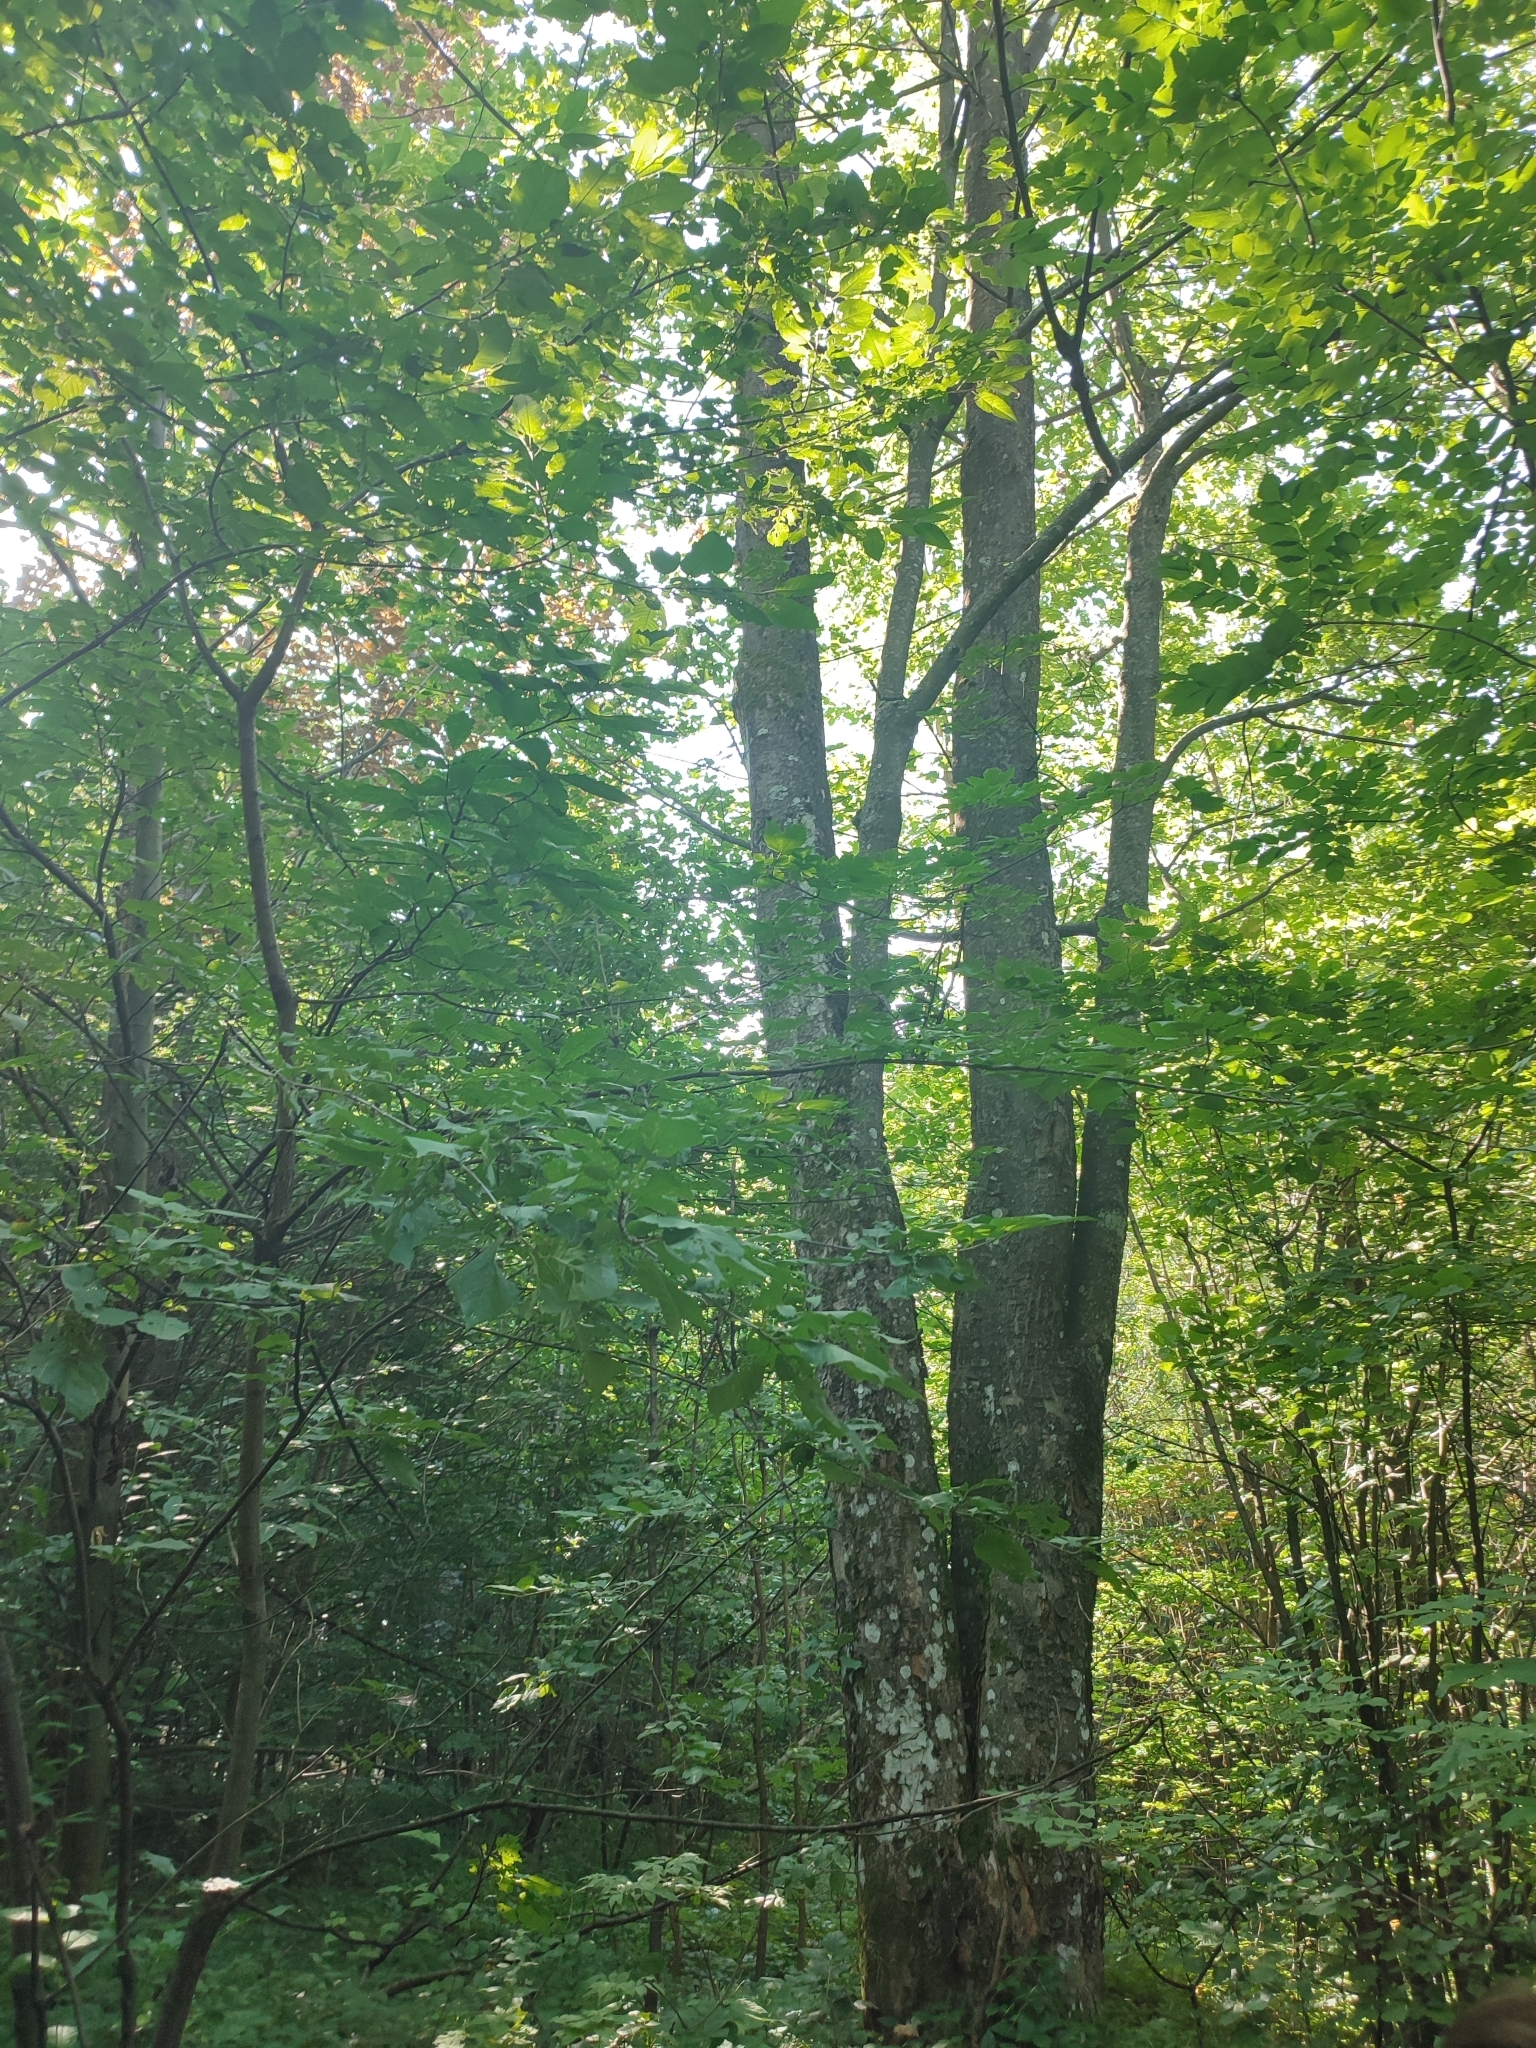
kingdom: Plantae
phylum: Tracheophyta
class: Magnoliopsida
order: Sapindales
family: Sapindaceae
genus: Acer
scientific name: Acer pseudoplatanus
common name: Sycamore
